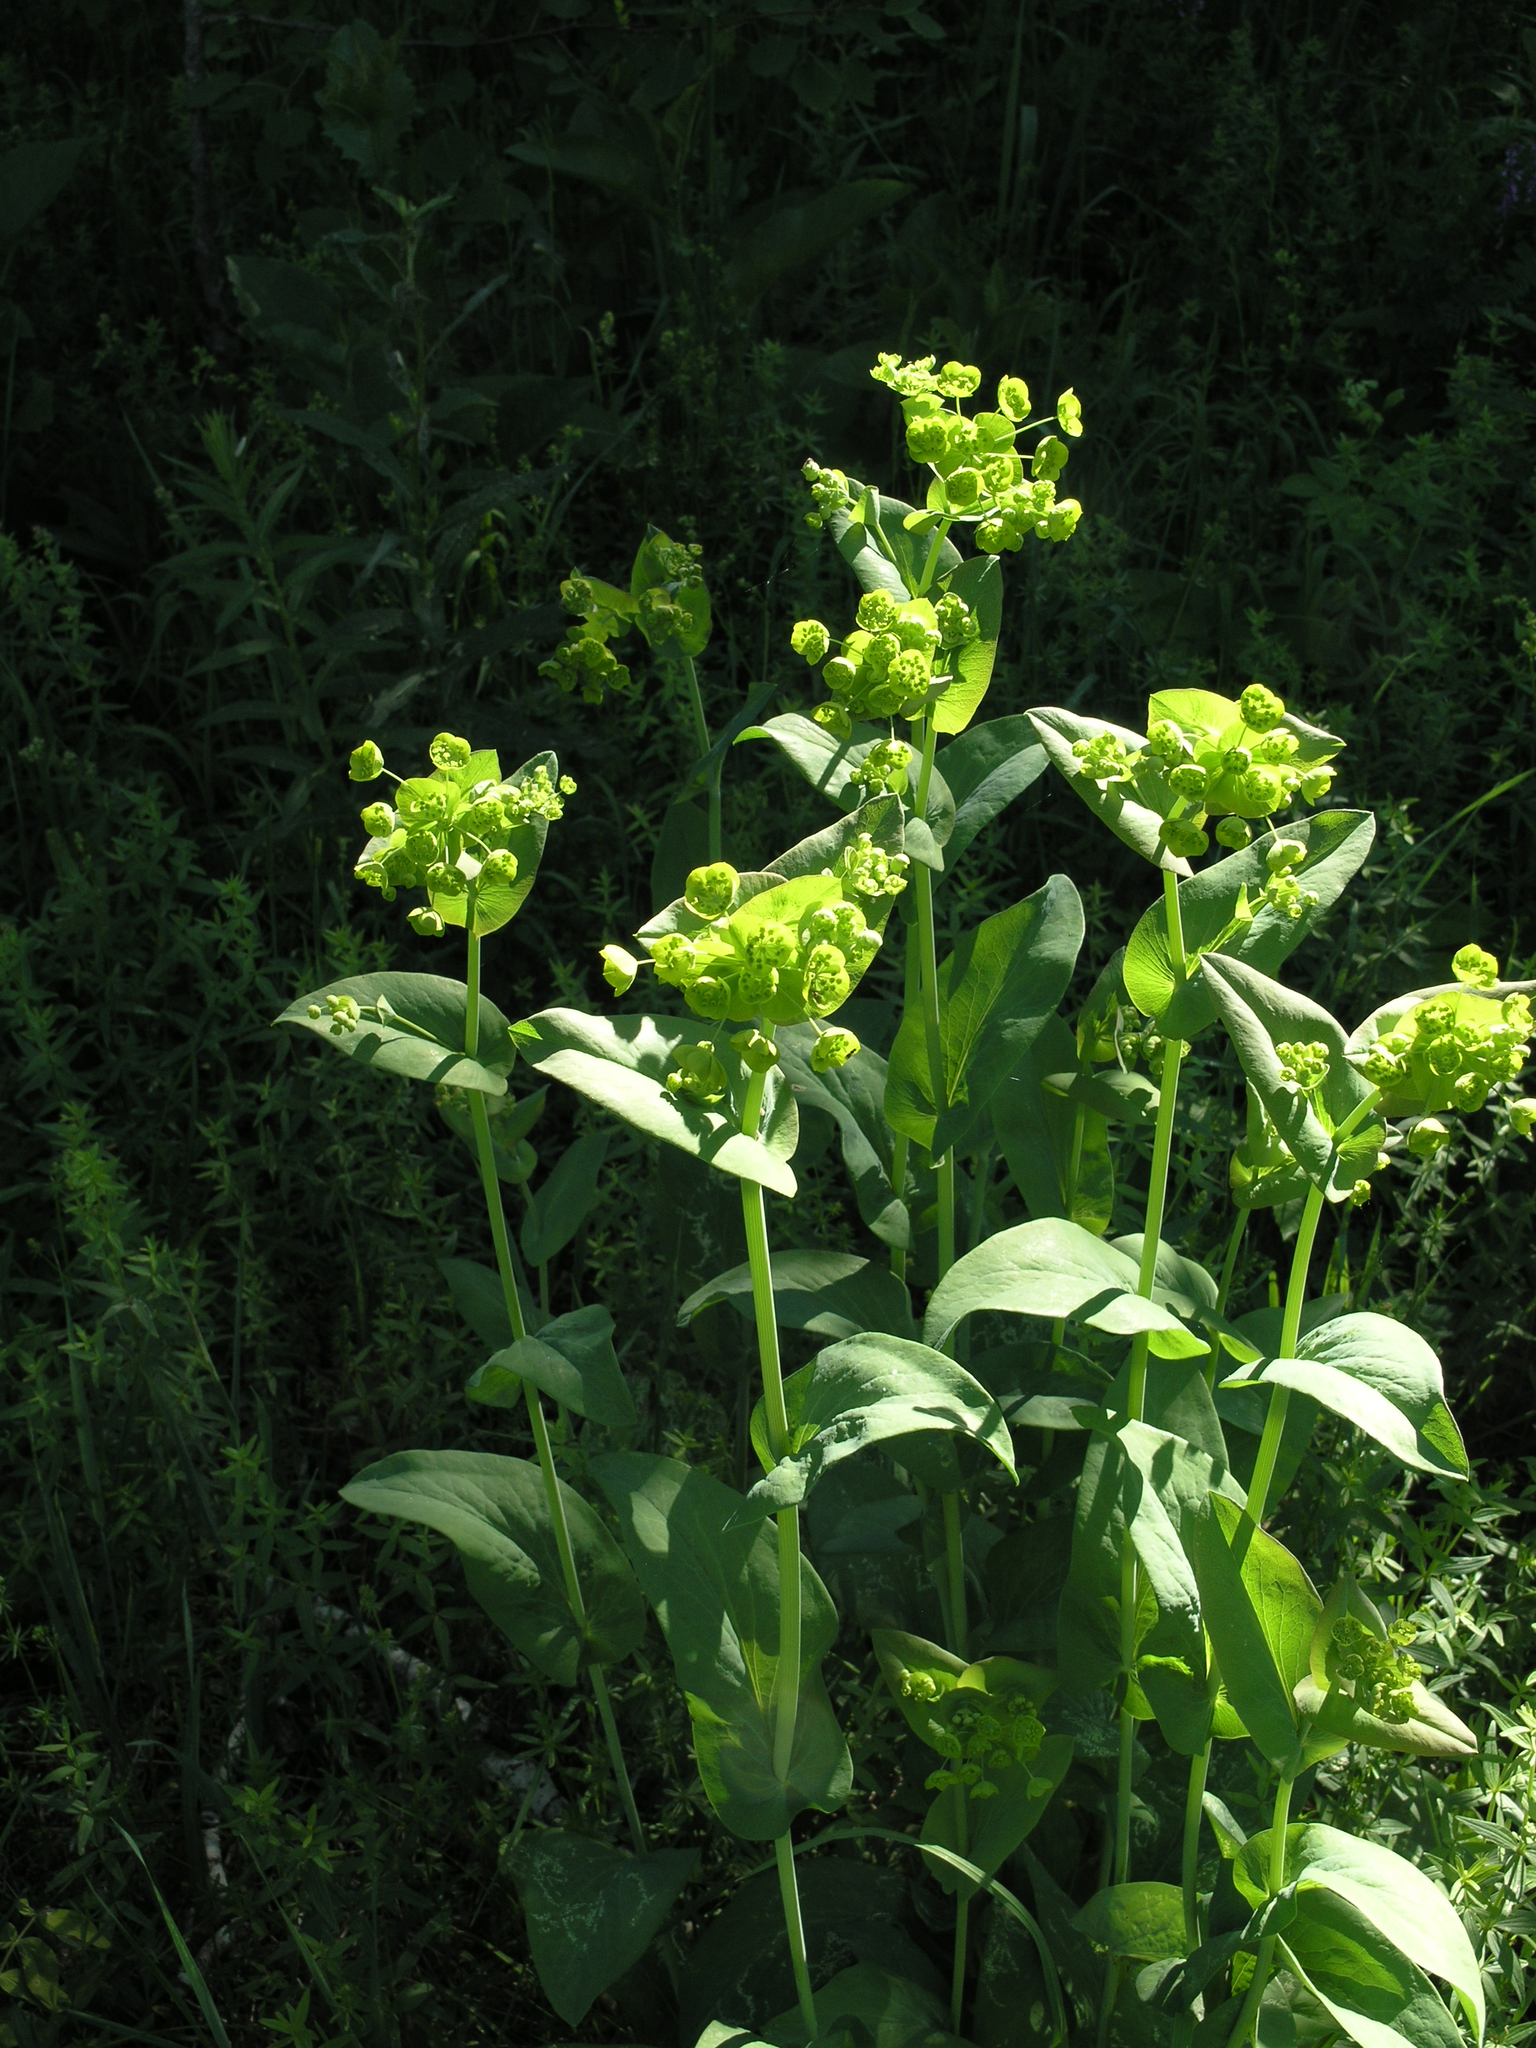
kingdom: Plantae
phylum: Tracheophyta
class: Magnoliopsida
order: Apiales
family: Apiaceae
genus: Bupleurum
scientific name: Bupleurum aureum
